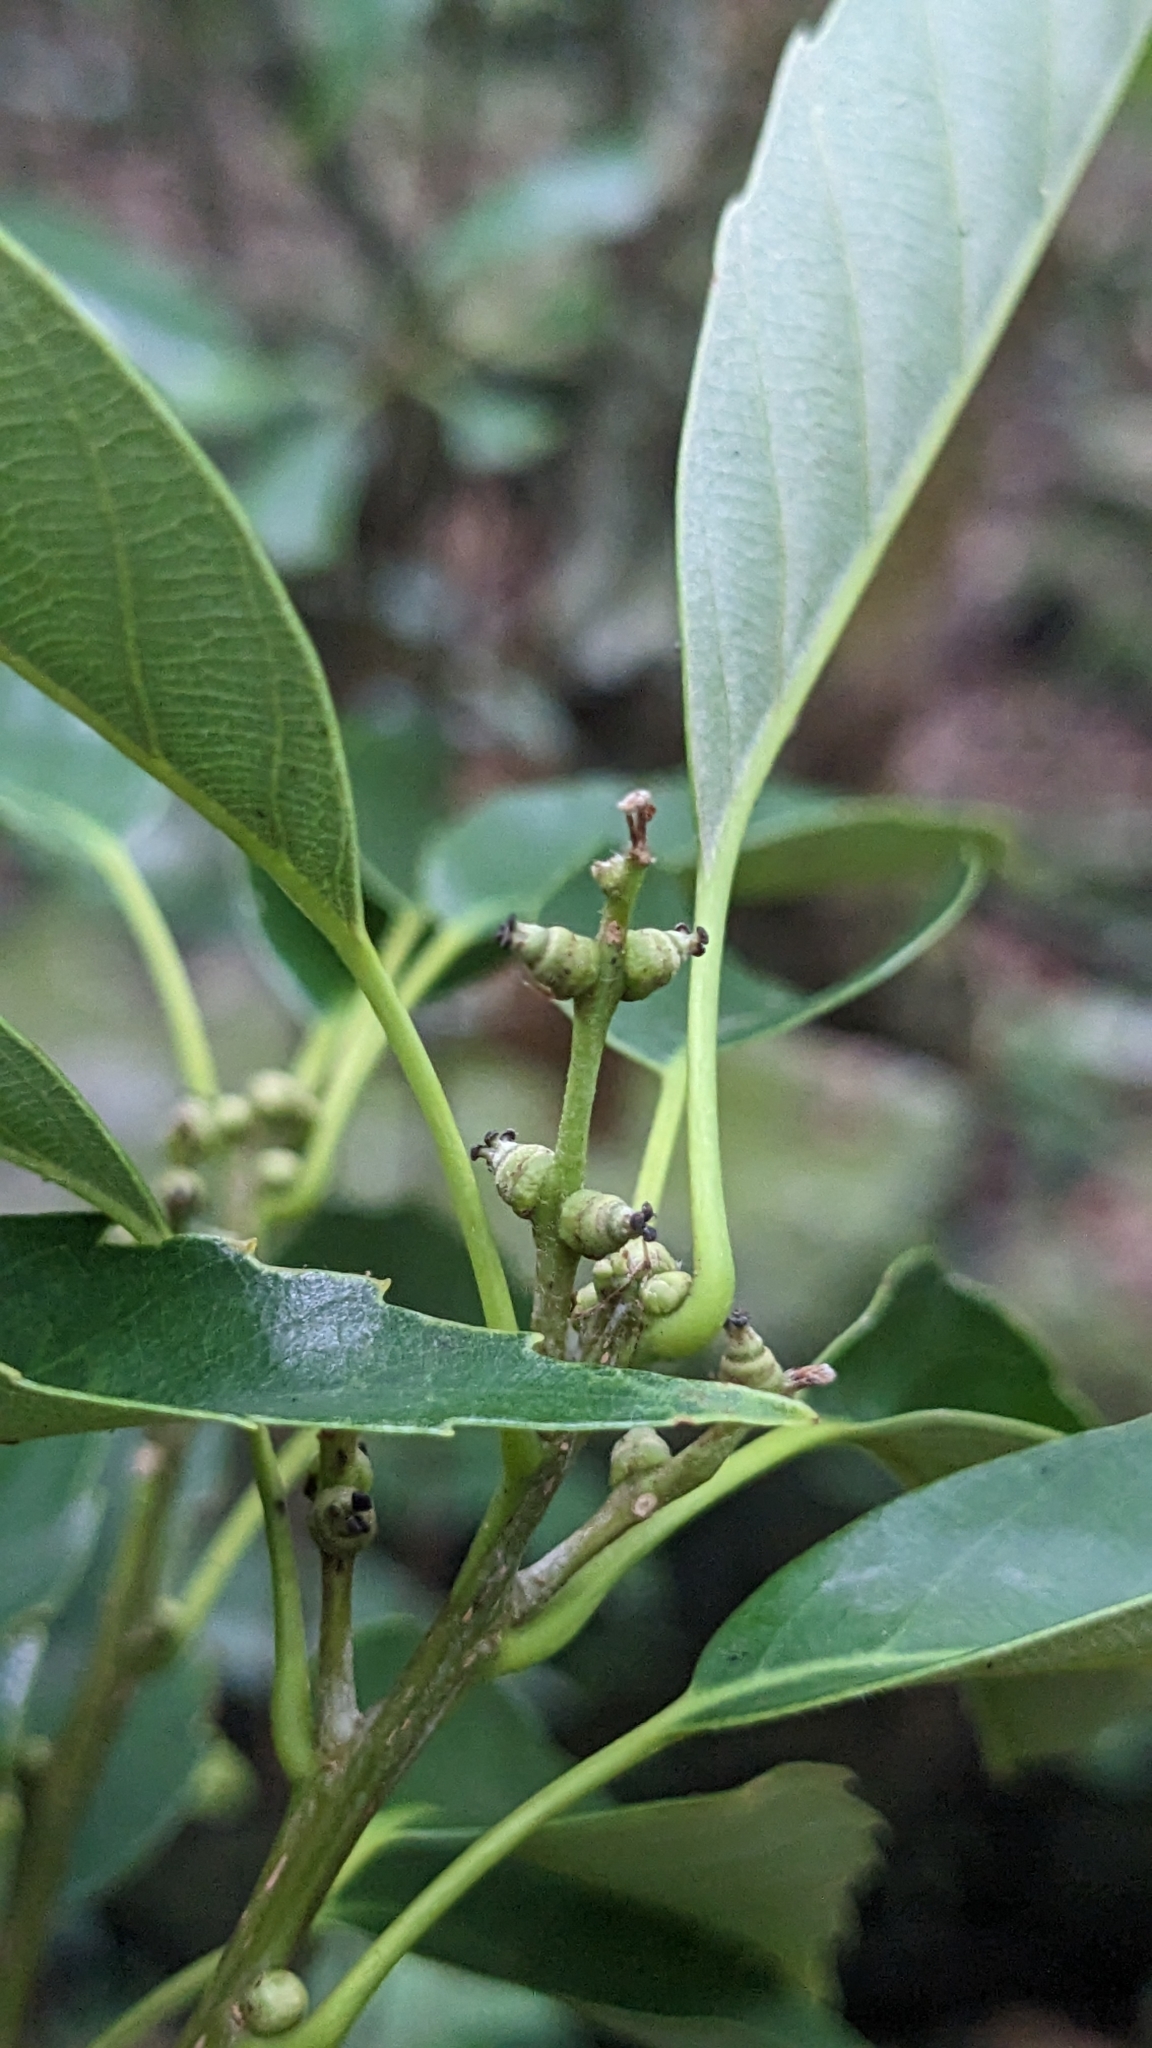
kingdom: Plantae
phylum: Tracheophyta
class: Magnoliopsida
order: Fagales
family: Fagaceae
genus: Quercus
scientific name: Quercus glauca
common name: Ring-cup oak
